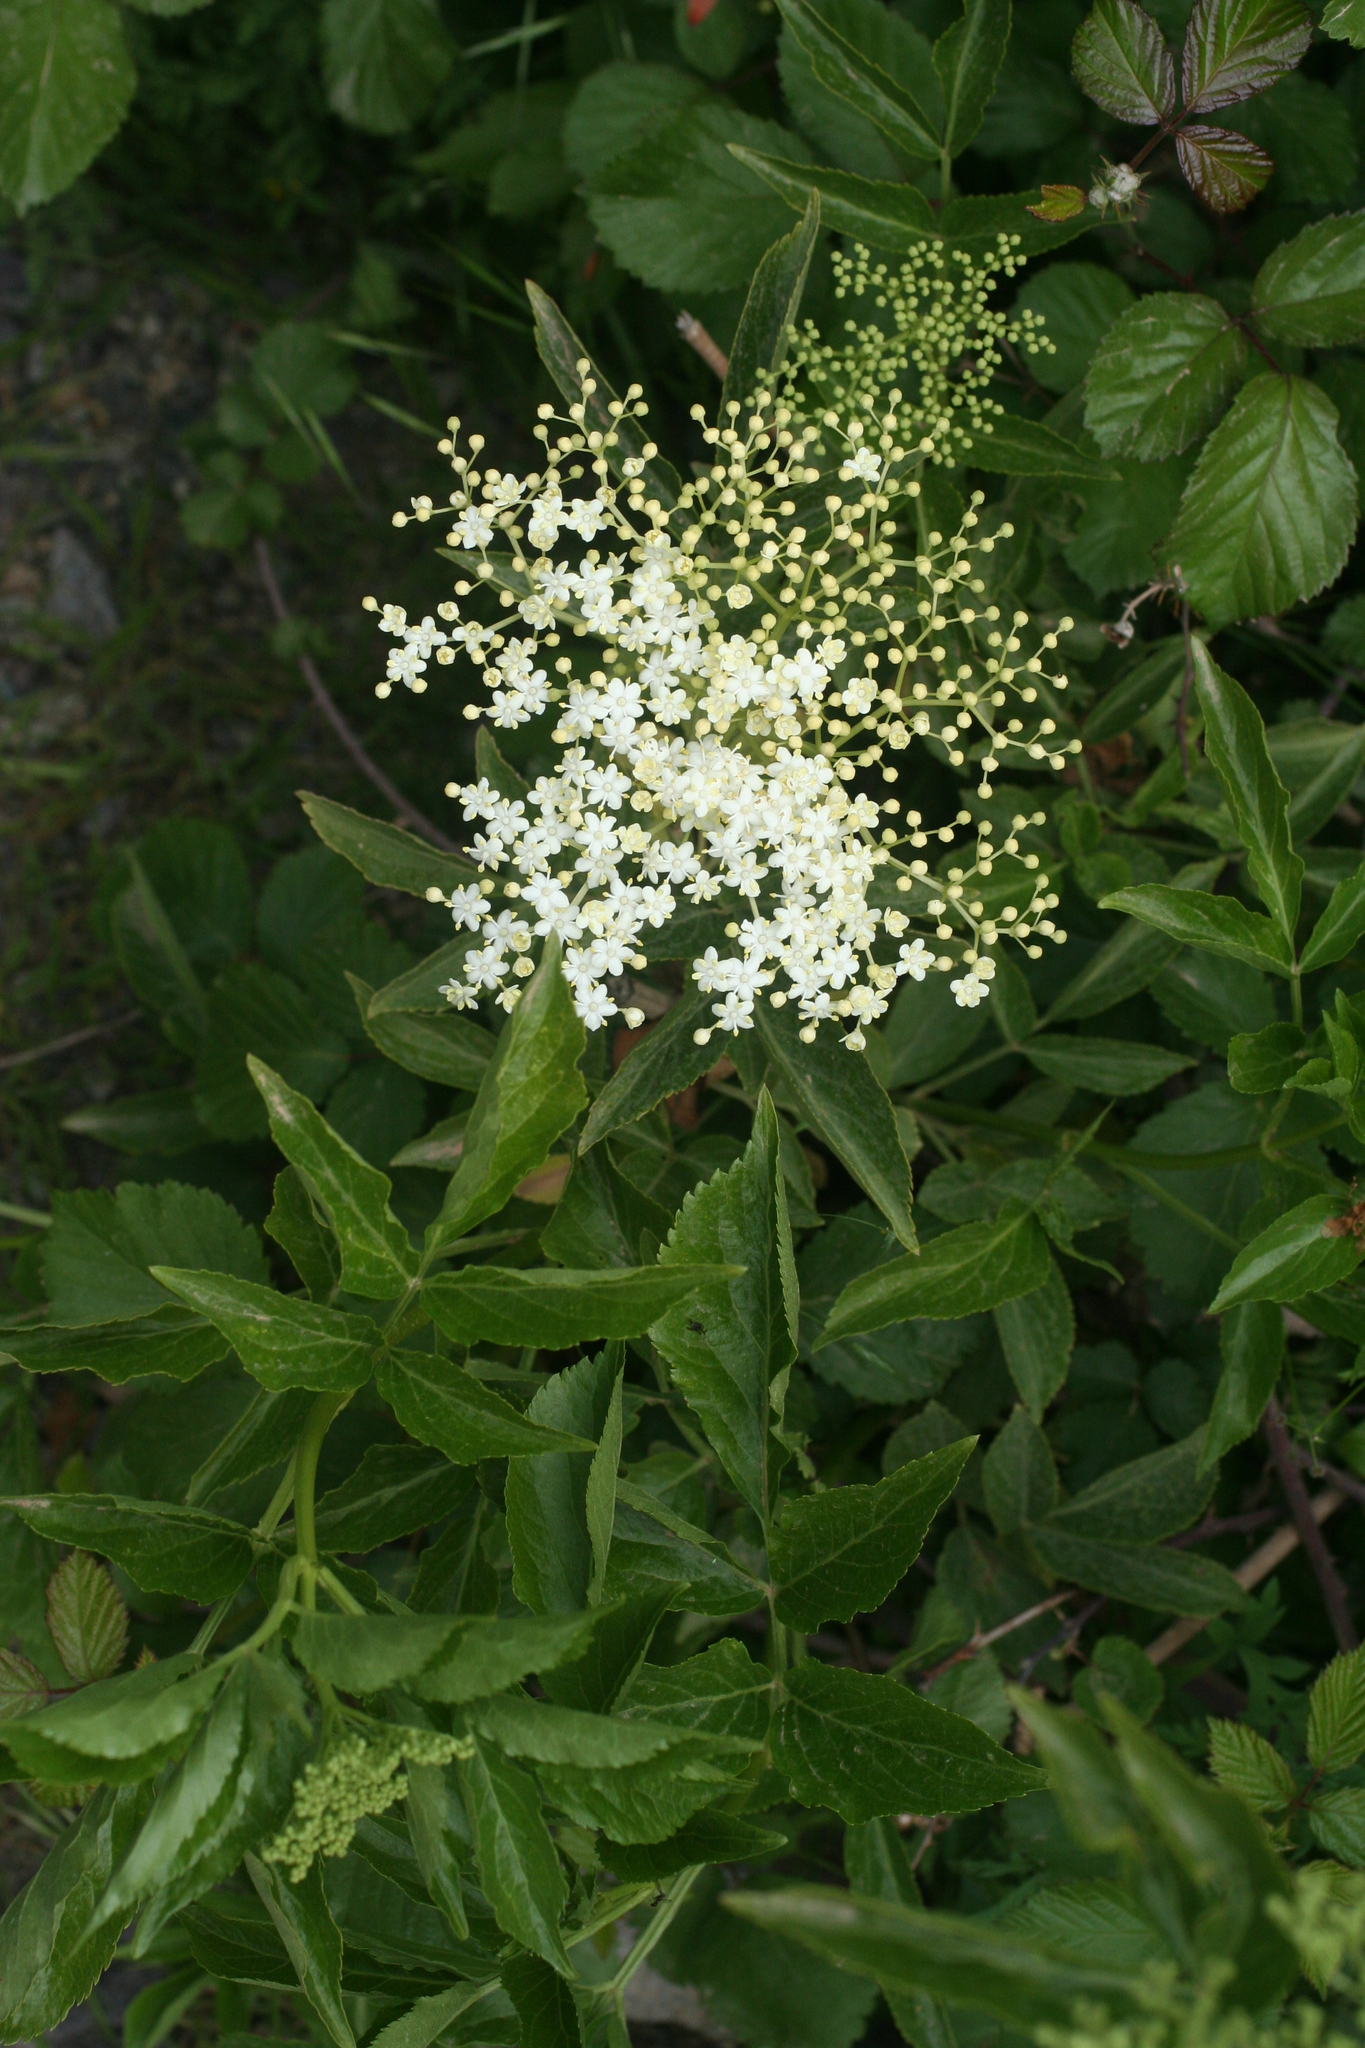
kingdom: Plantae
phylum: Tracheophyta
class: Magnoliopsida
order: Dipsacales
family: Viburnaceae
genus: Sambucus
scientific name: Sambucus nigra
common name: Elder
